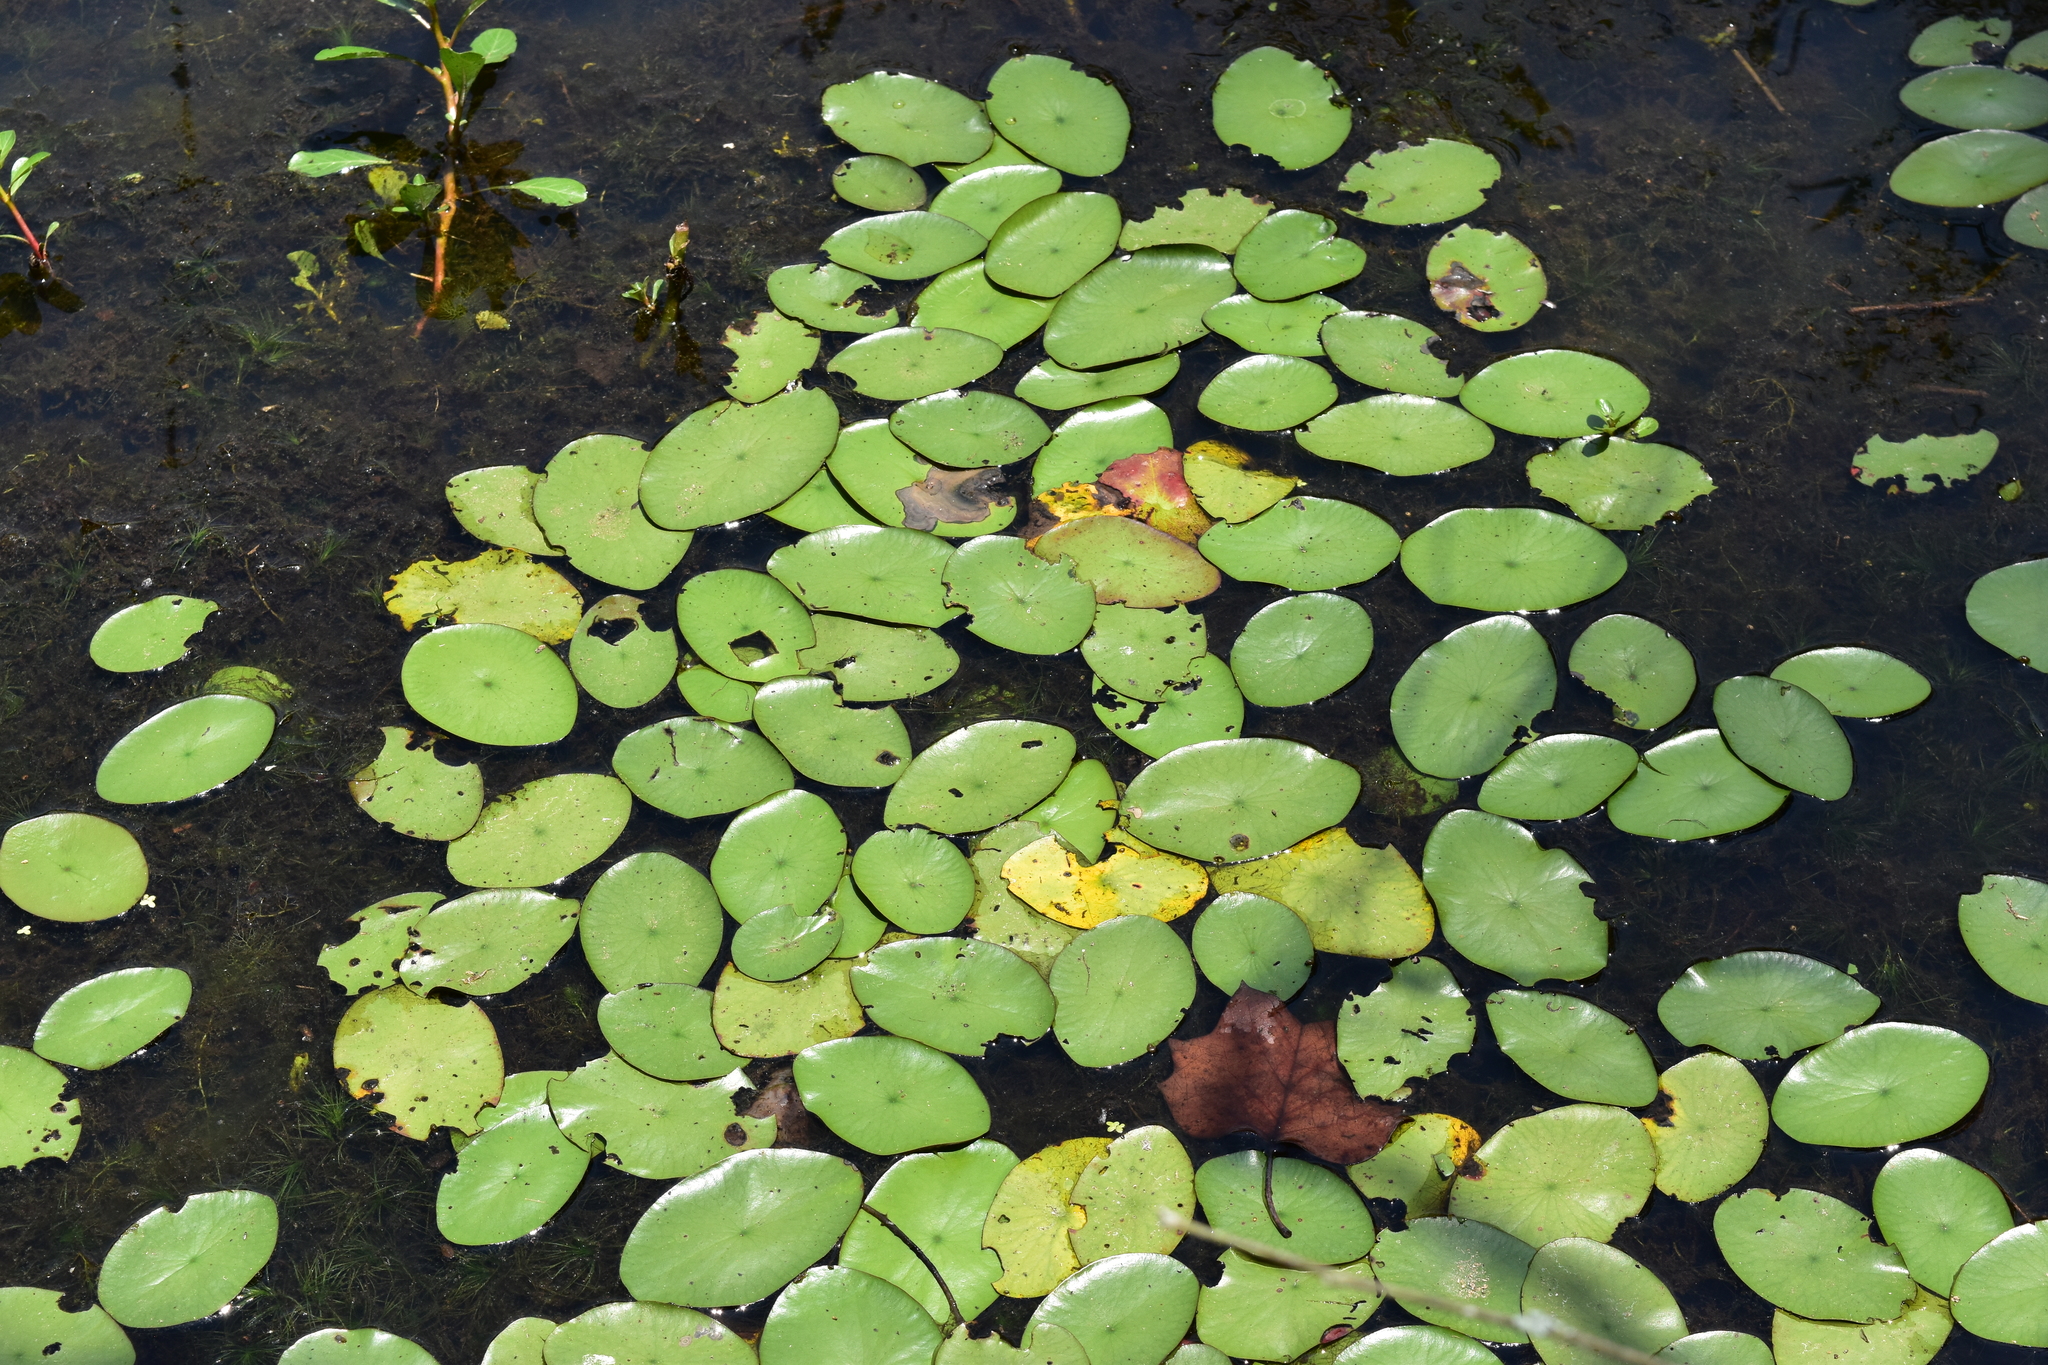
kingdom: Plantae
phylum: Tracheophyta
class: Magnoliopsida
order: Nymphaeales
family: Cabombaceae
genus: Brasenia
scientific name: Brasenia schreberi
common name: Water-shield
